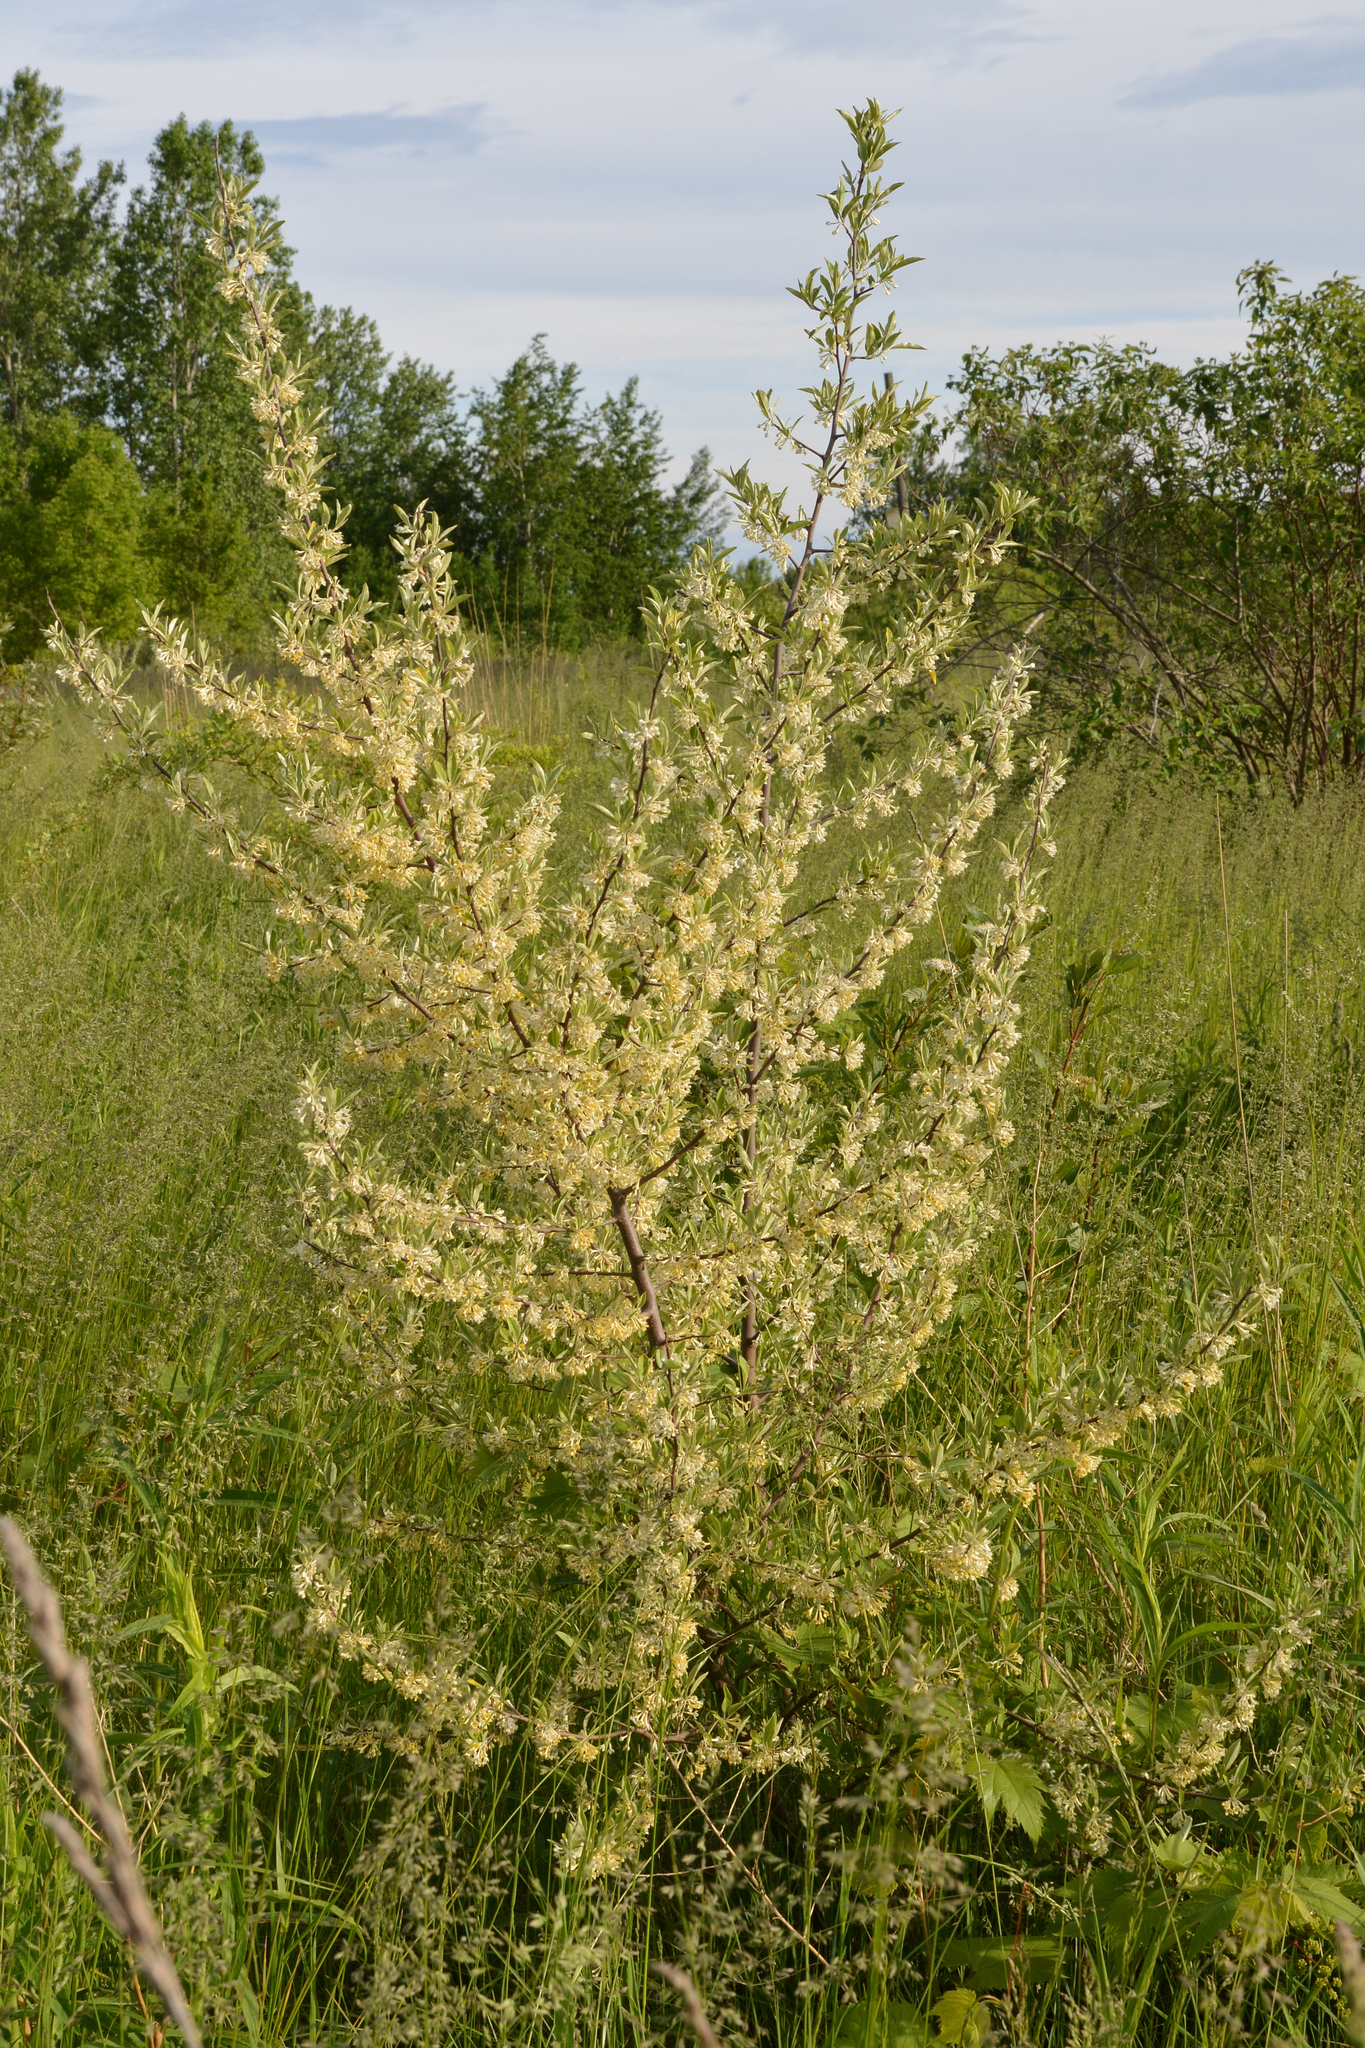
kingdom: Plantae
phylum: Tracheophyta
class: Magnoliopsida
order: Rosales
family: Elaeagnaceae
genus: Elaeagnus
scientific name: Elaeagnus umbellata
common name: Autumn olive
